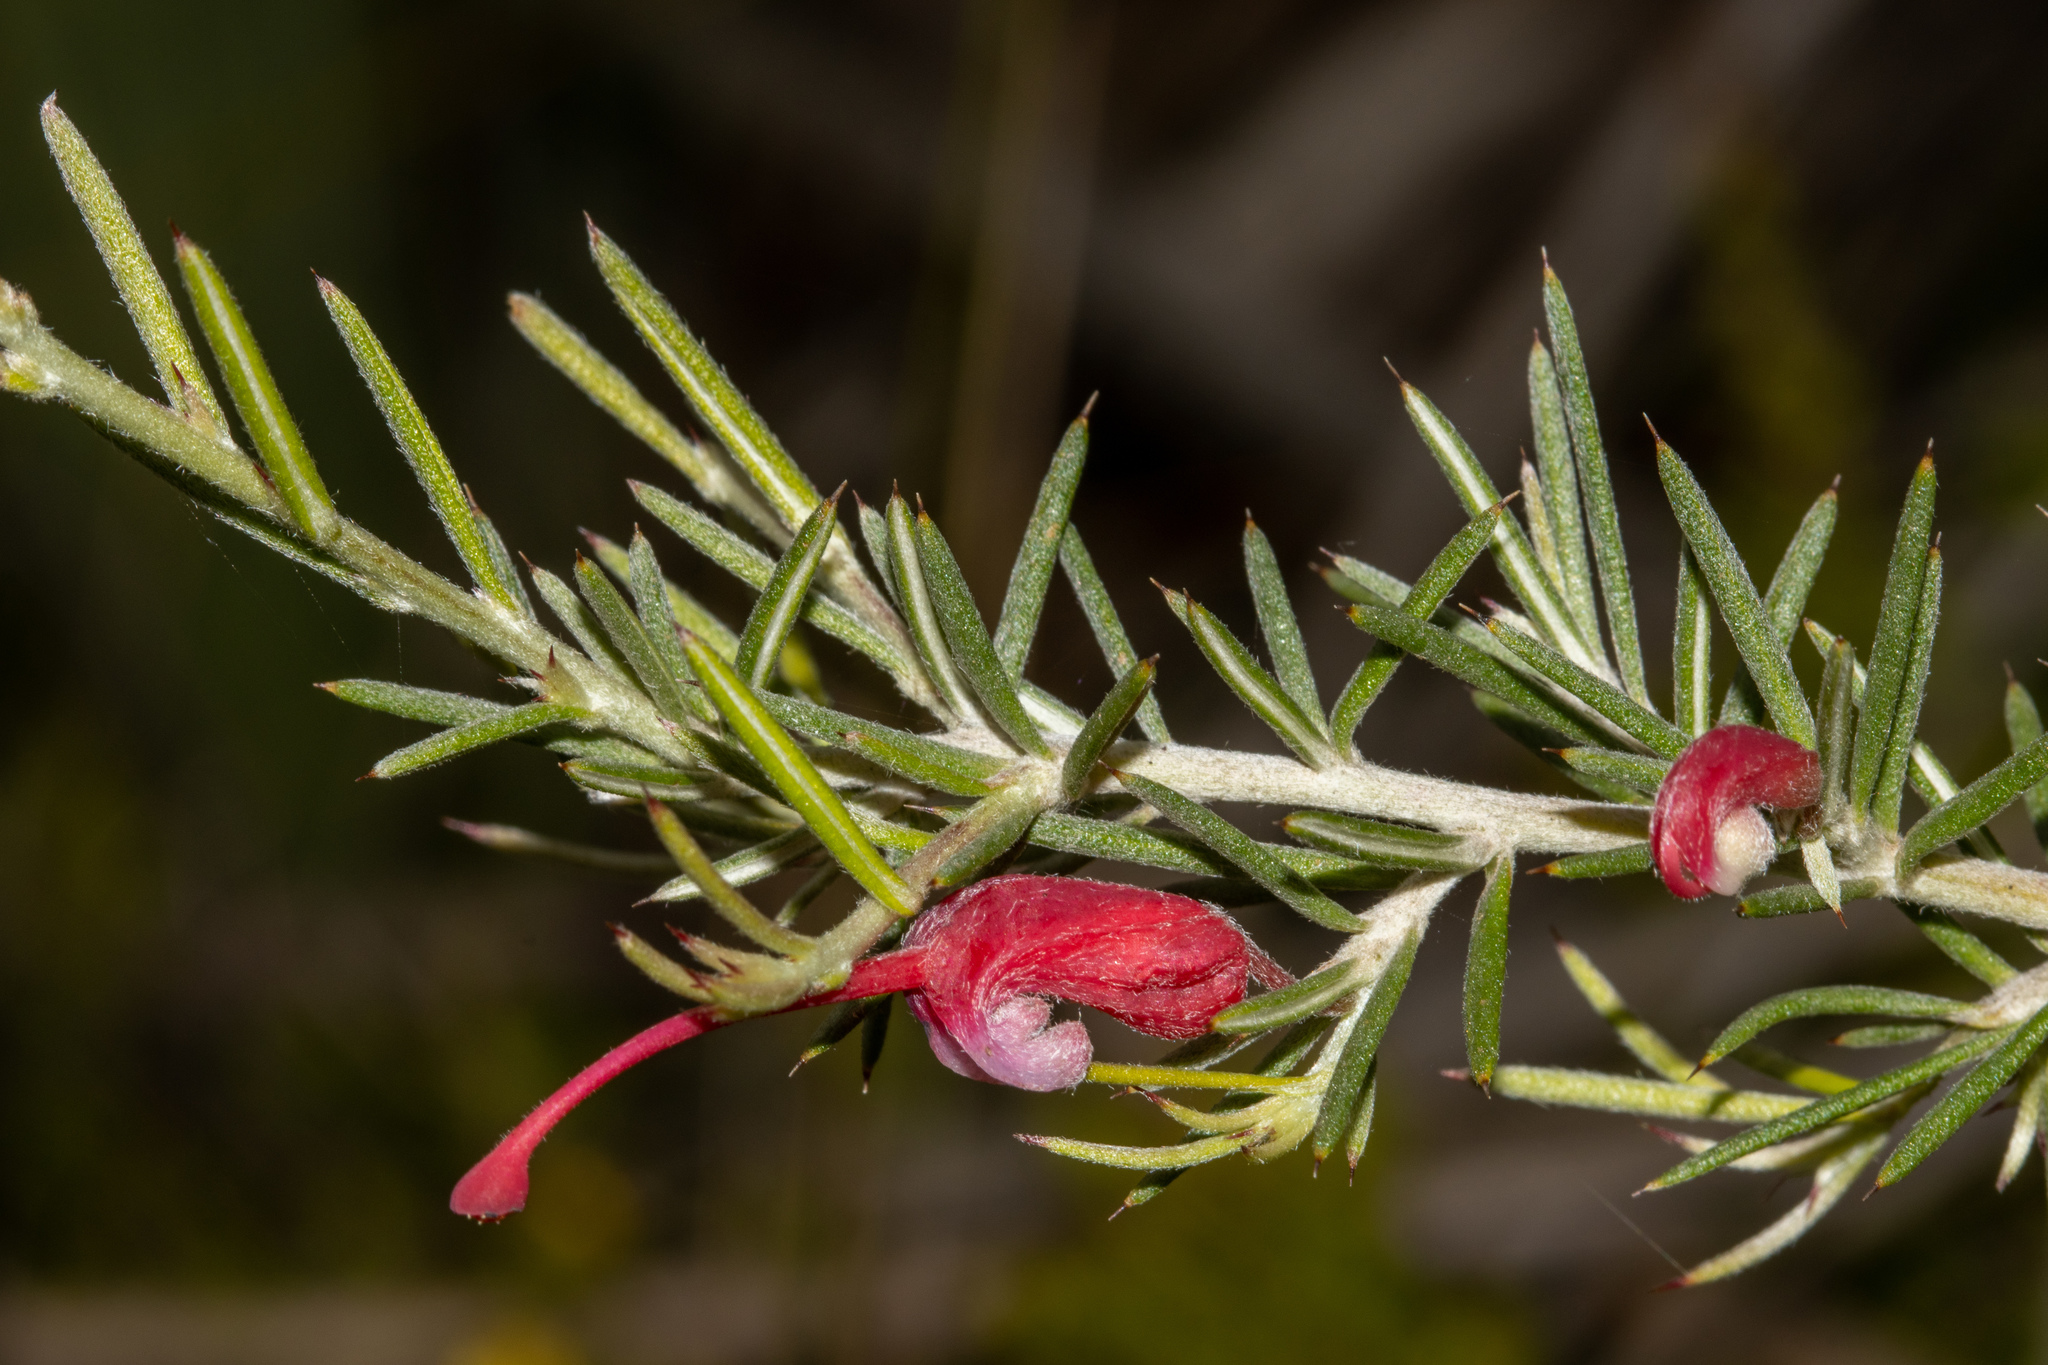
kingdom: Plantae
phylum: Tracheophyta
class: Magnoliopsida
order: Proteales
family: Proteaceae
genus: Grevillea
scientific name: Grevillea lavandulacea
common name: Lavender grevillea
